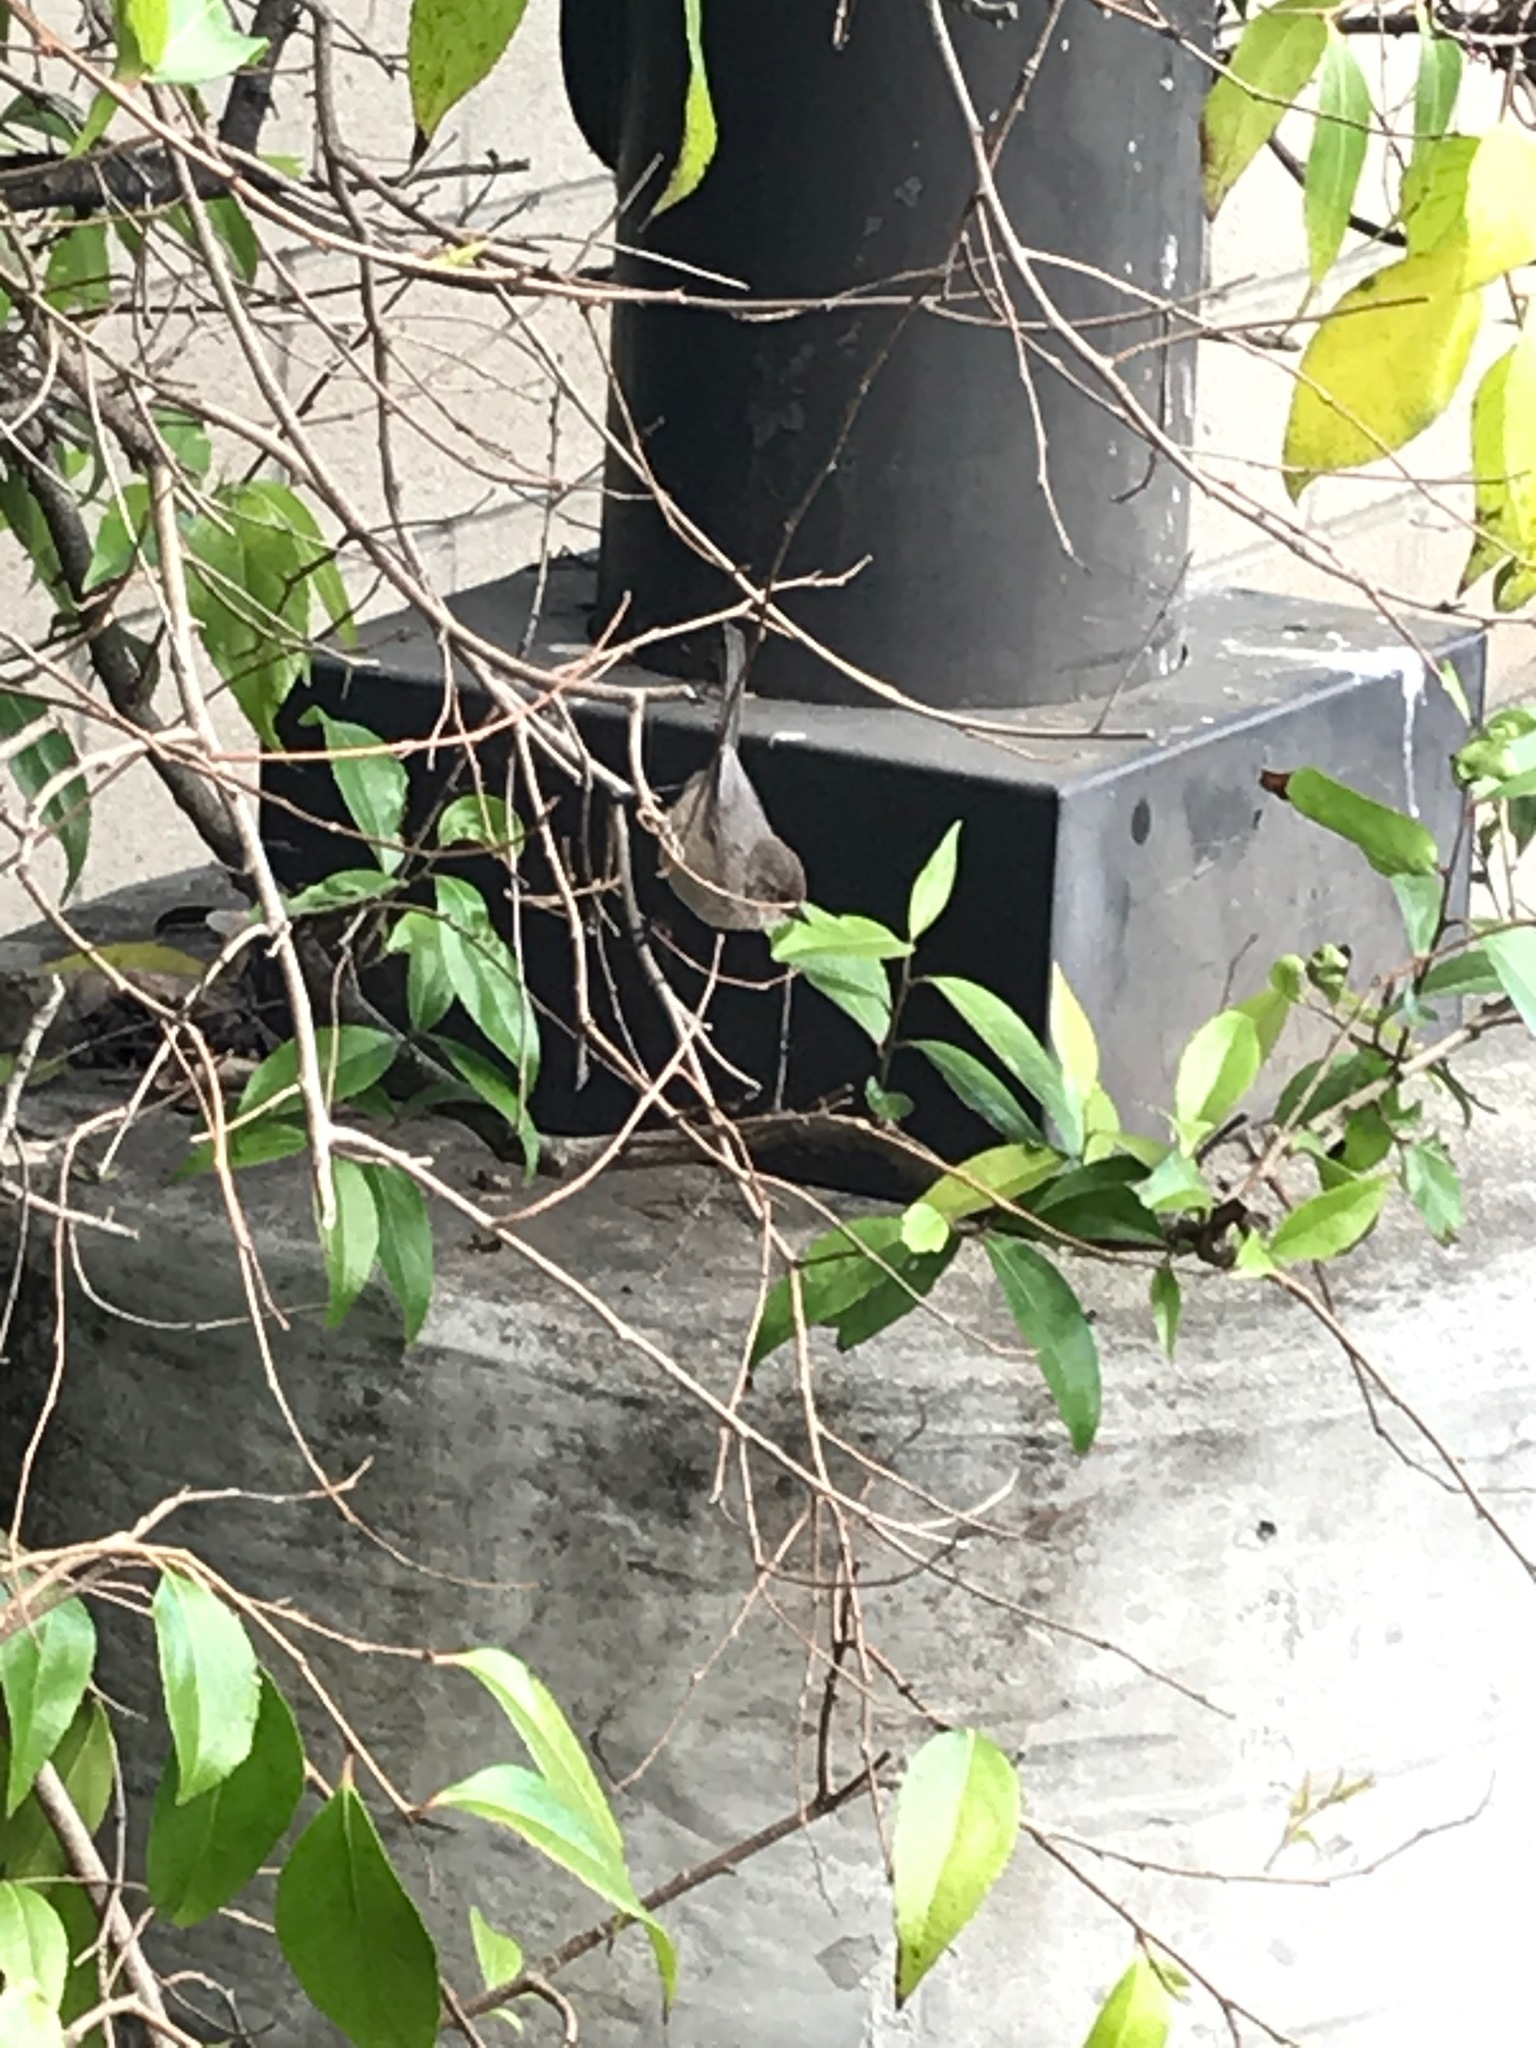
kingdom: Animalia
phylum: Chordata
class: Aves
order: Passeriformes
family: Aegithalidae
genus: Psaltriparus
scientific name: Psaltriparus minimus
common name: American bushtit
